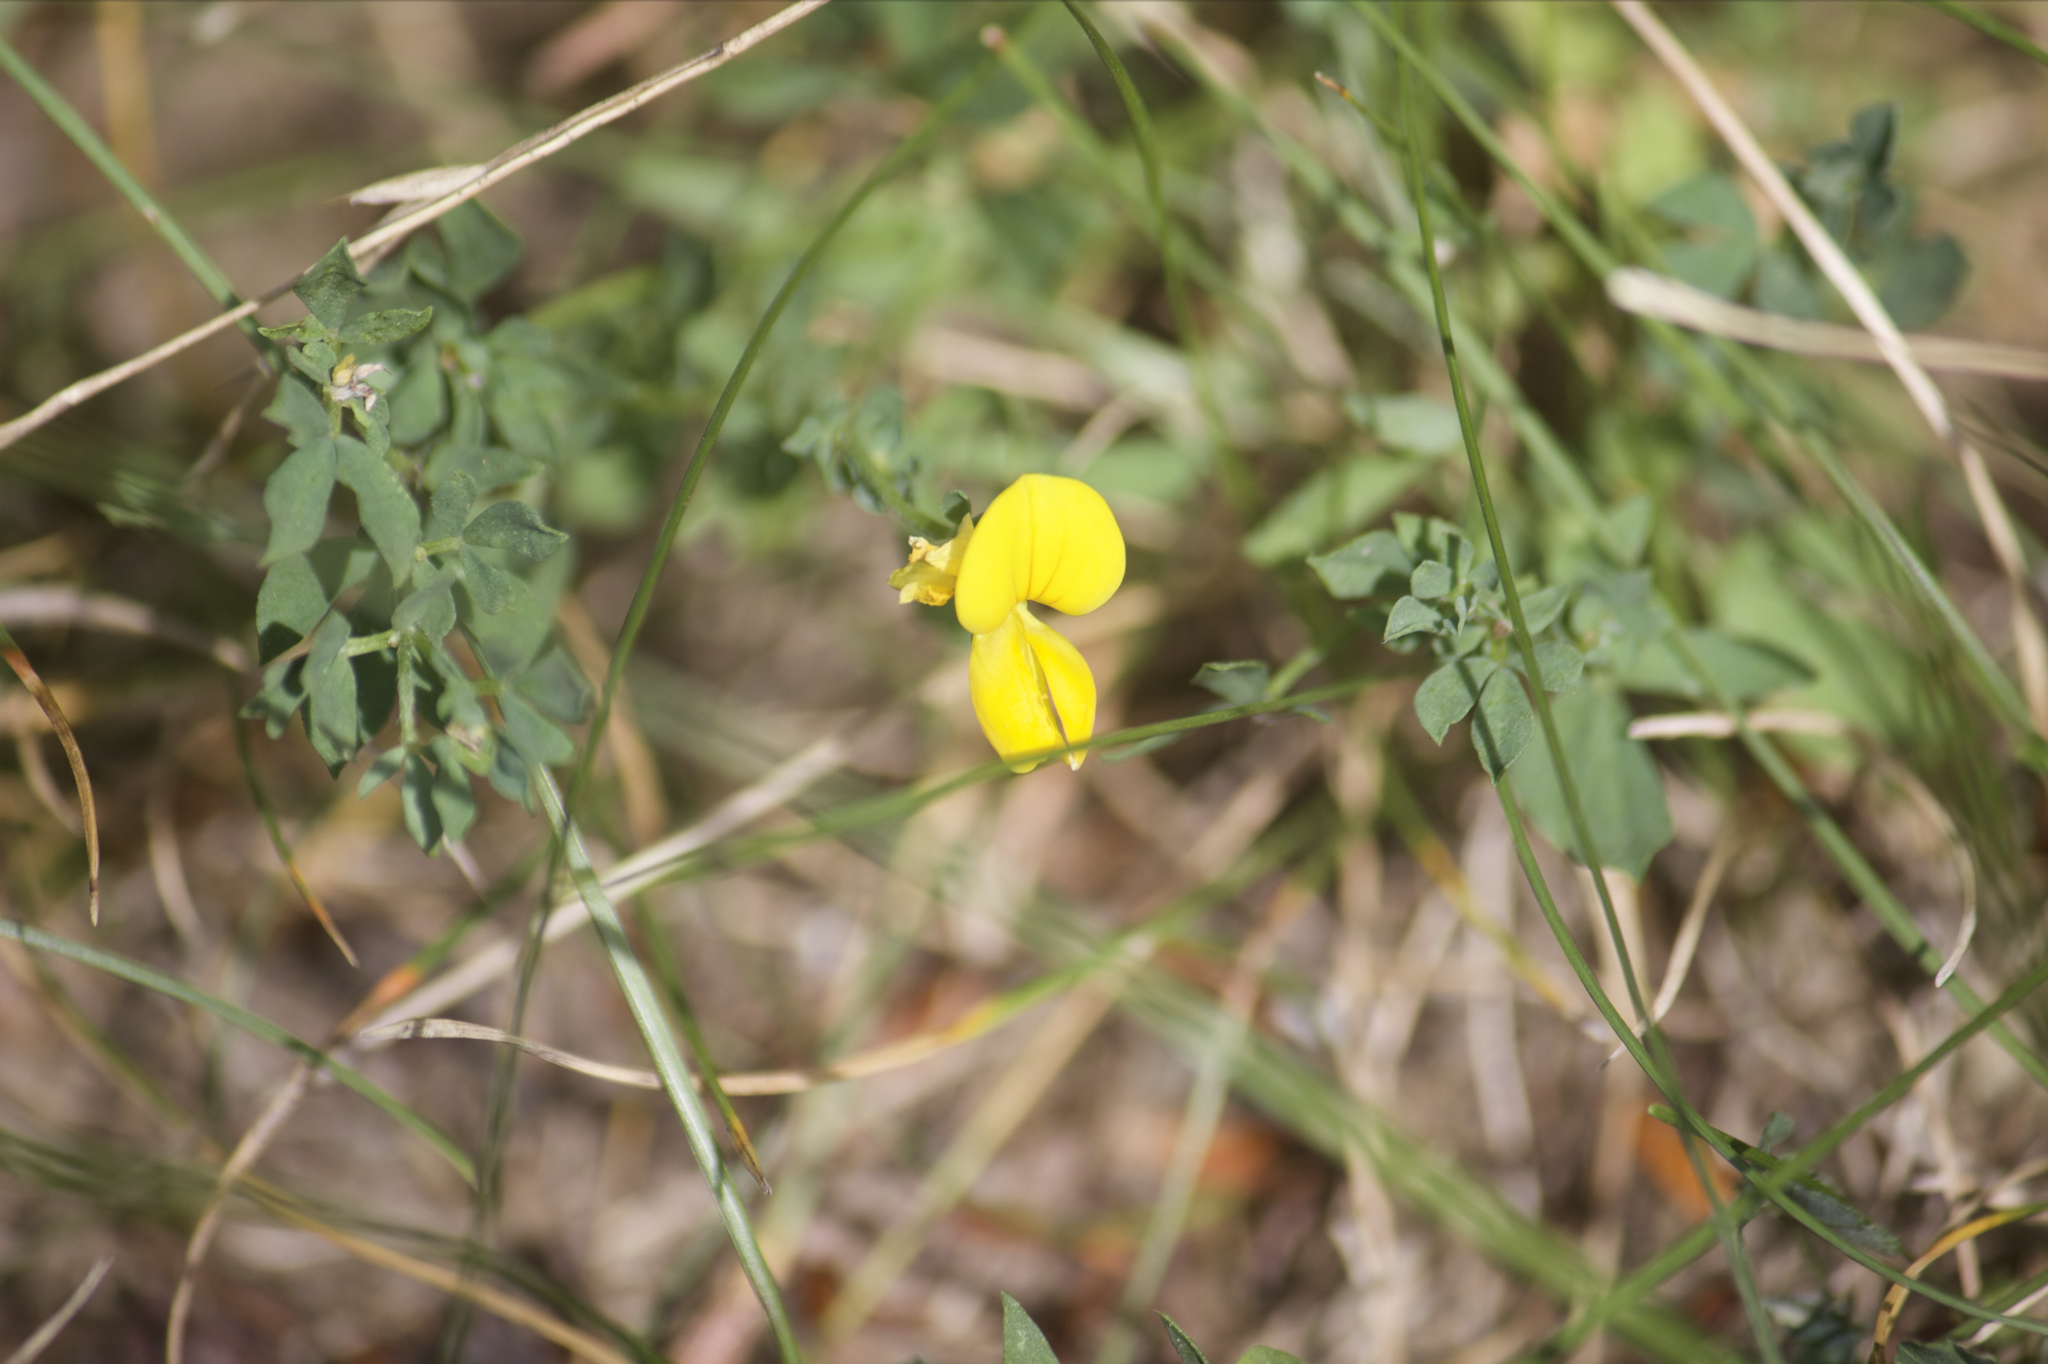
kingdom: Plantae
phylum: Tracheophyta
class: Magnoliopsida
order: Fabales
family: Fabaceae
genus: Lotus
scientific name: Lotus corniculatus
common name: Common bird's-foot-trefoil
